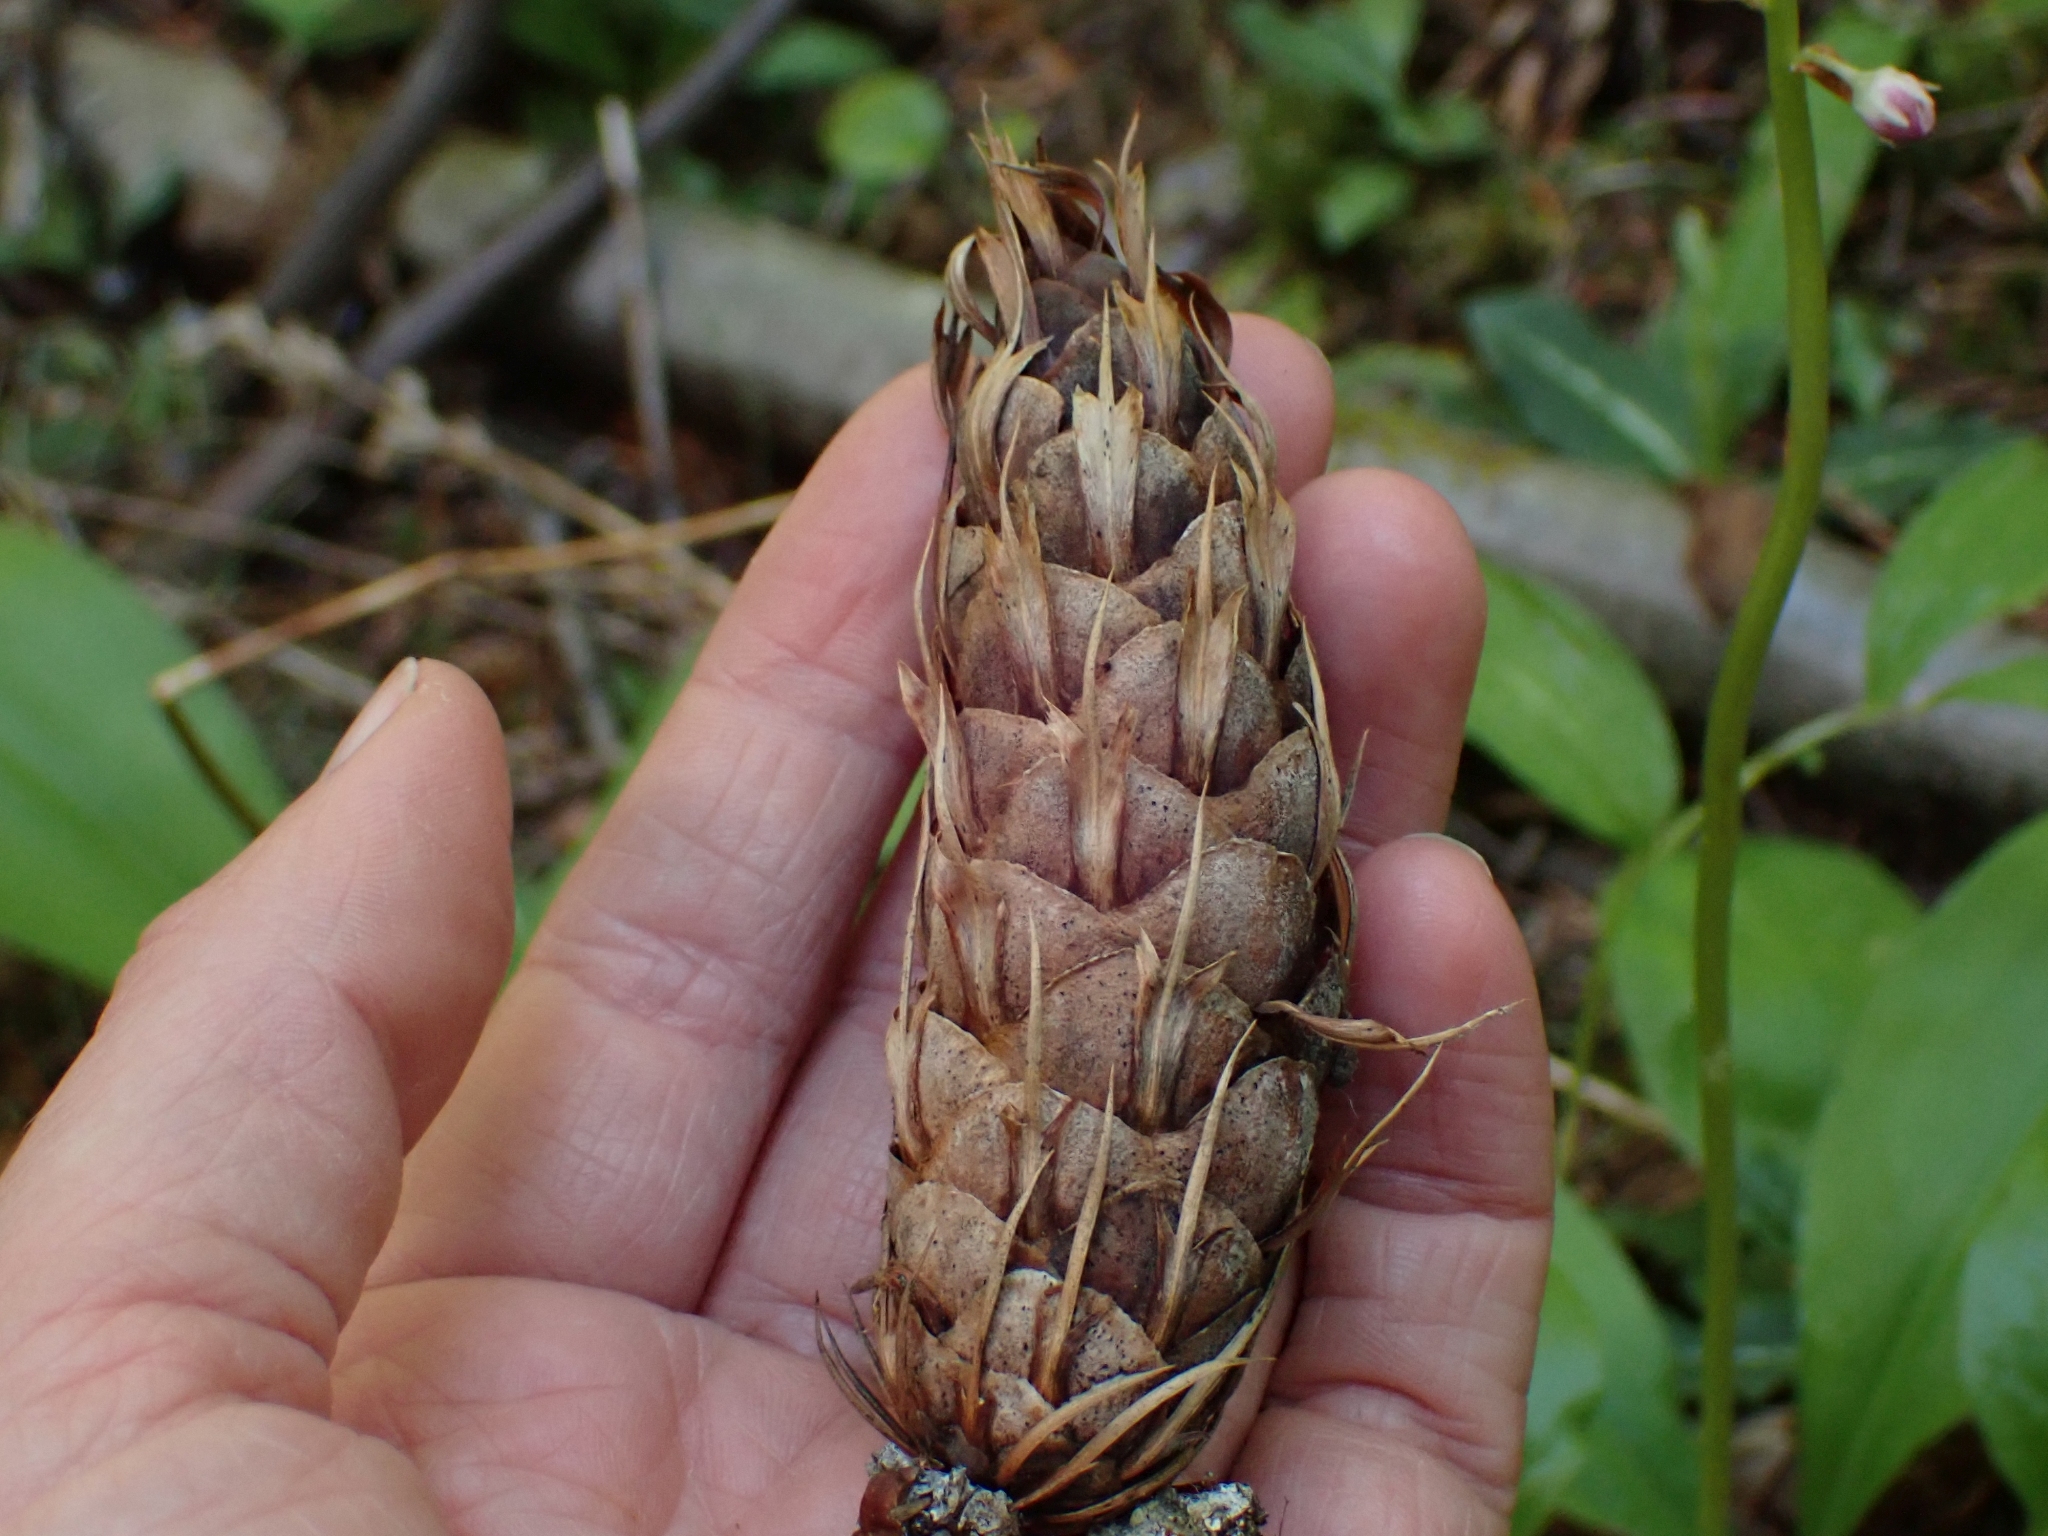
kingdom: Plantae
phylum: Tracheophyta
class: Pinopsida
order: Pinales
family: Pinaceae
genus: Pseudotsuga
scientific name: Pseudotsuga menziesii
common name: Douglas fir
